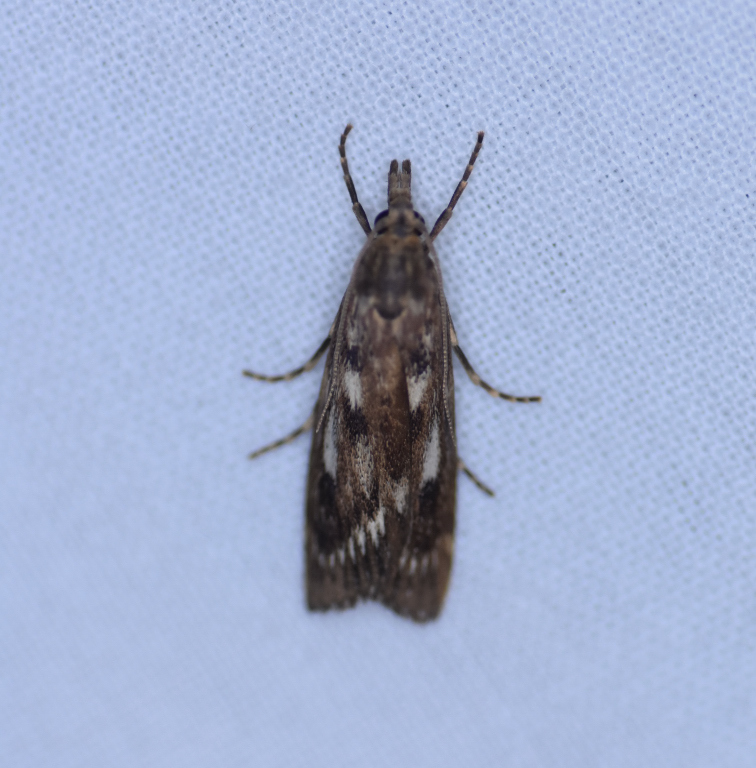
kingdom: Animalia
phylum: Arthropoda
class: Insecta
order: Lepidoptera
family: Crambidae
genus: Occidentalia
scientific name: Occidentalia comptulatalis
